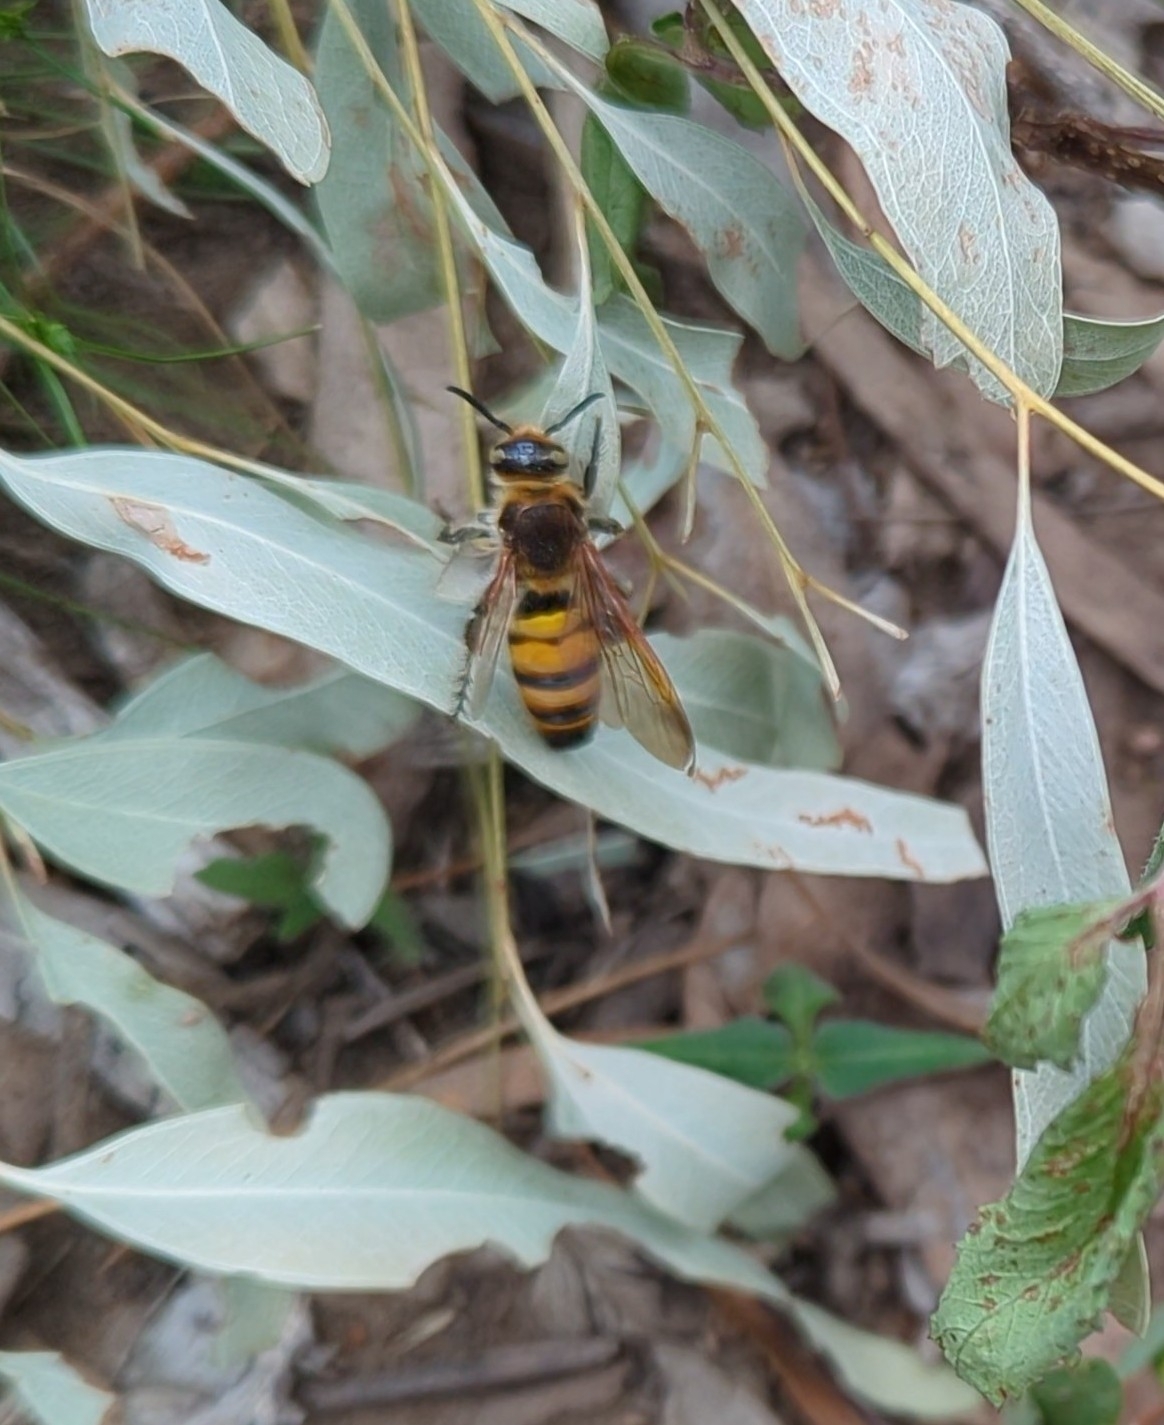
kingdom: Animalia
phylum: Arthropoda
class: Insecta
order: Hymenoptera
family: Scoliidae
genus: Radumeris
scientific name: Radumeris tasmaniensis
